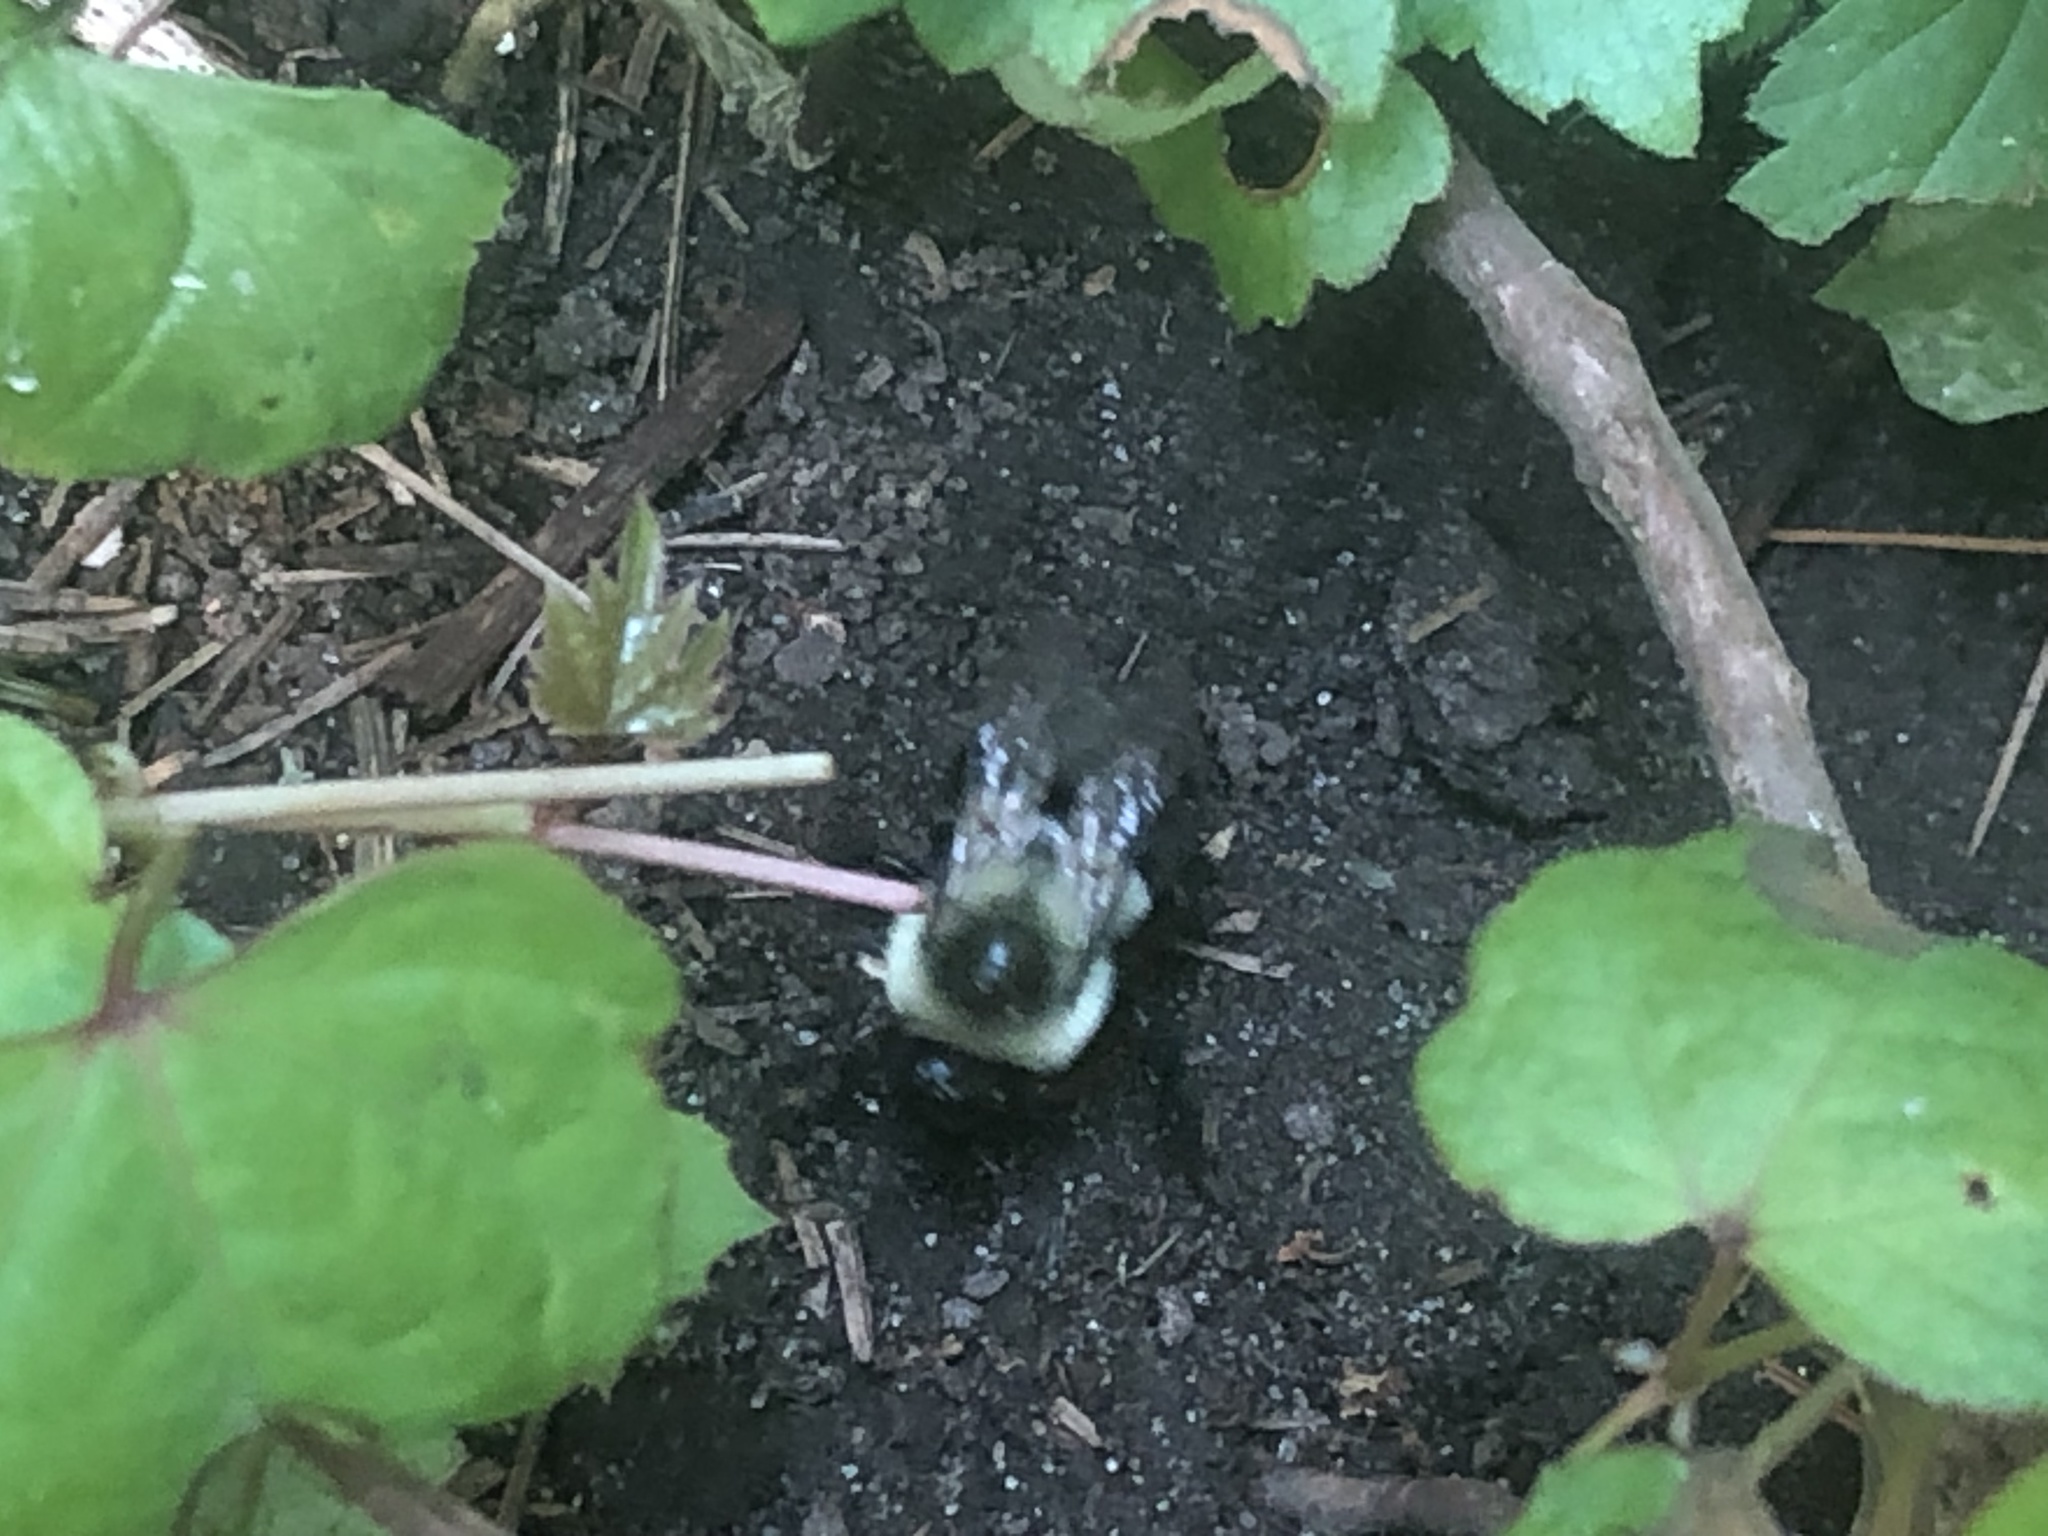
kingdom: Animalia
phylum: Arthropoda
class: Insecta
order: Hymenoptera
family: Apidae
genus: Bombus
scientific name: Bombus impatiens
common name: Common eastern bumble bee
